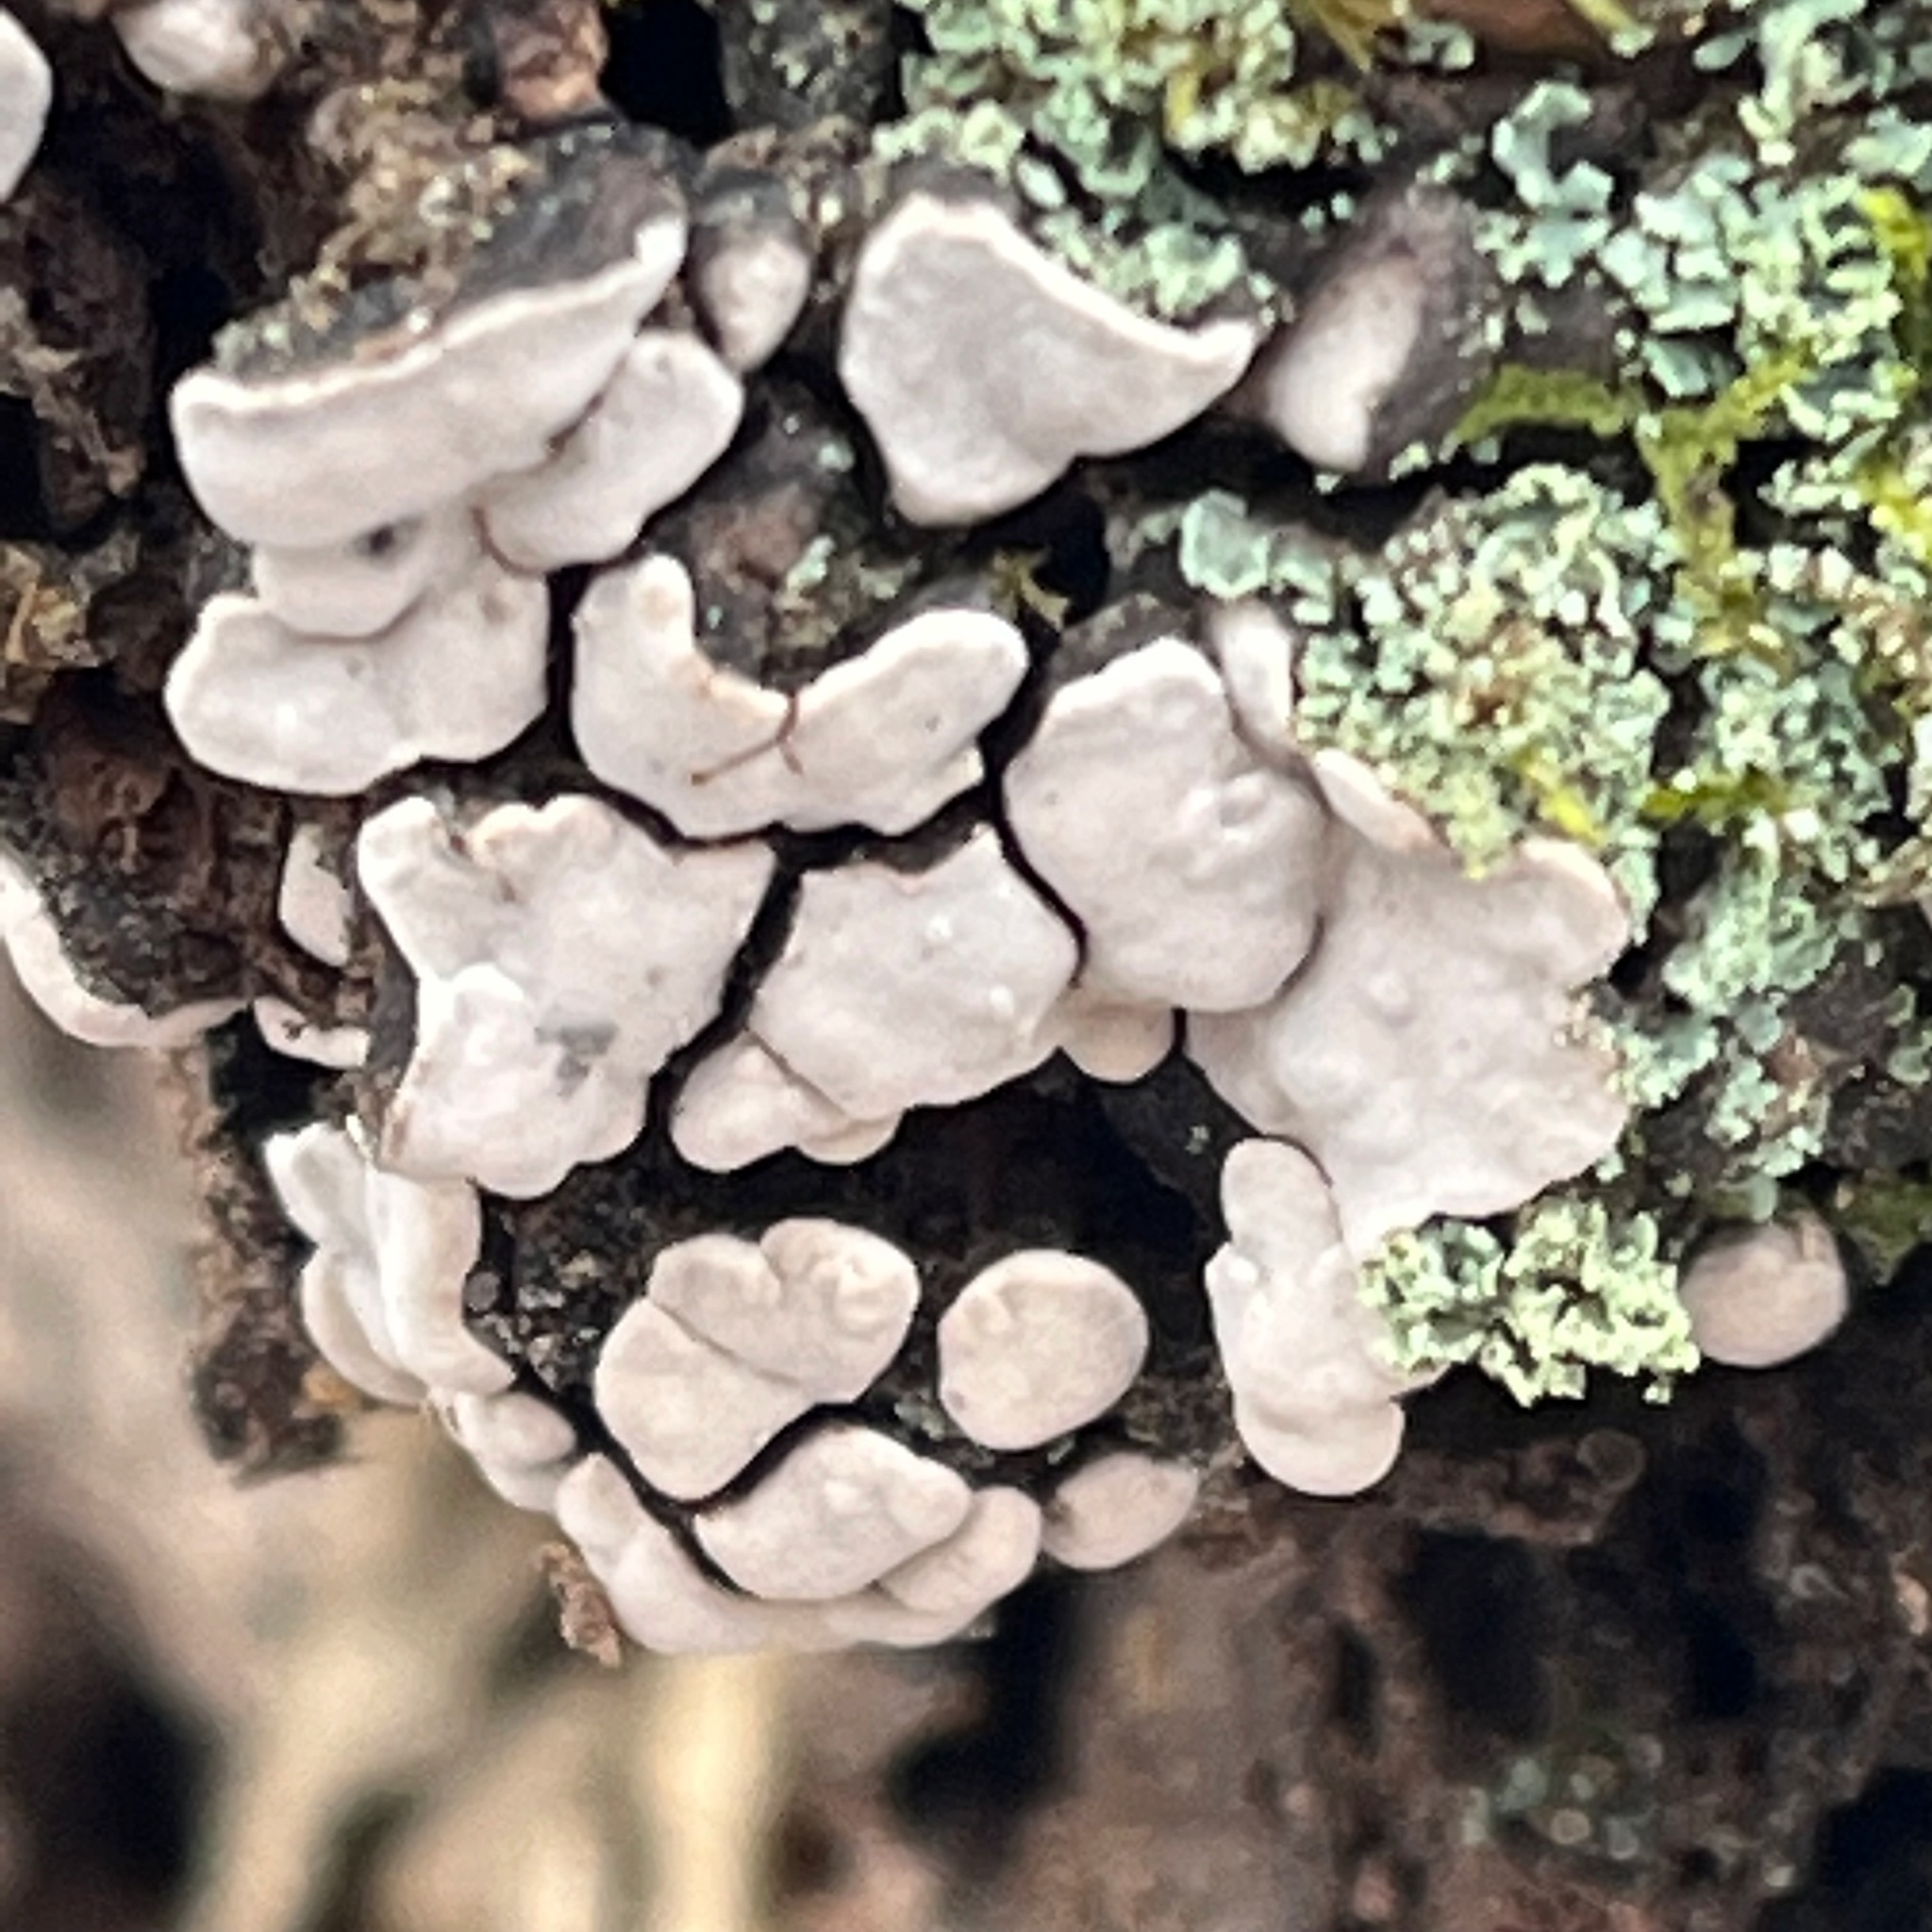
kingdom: Fungi
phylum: Basidiomycota
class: Agaricomycetes
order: Russulales
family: Stereaceae
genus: Xylobolus
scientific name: Xylobolus frustulatus
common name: Ceramic parchment
